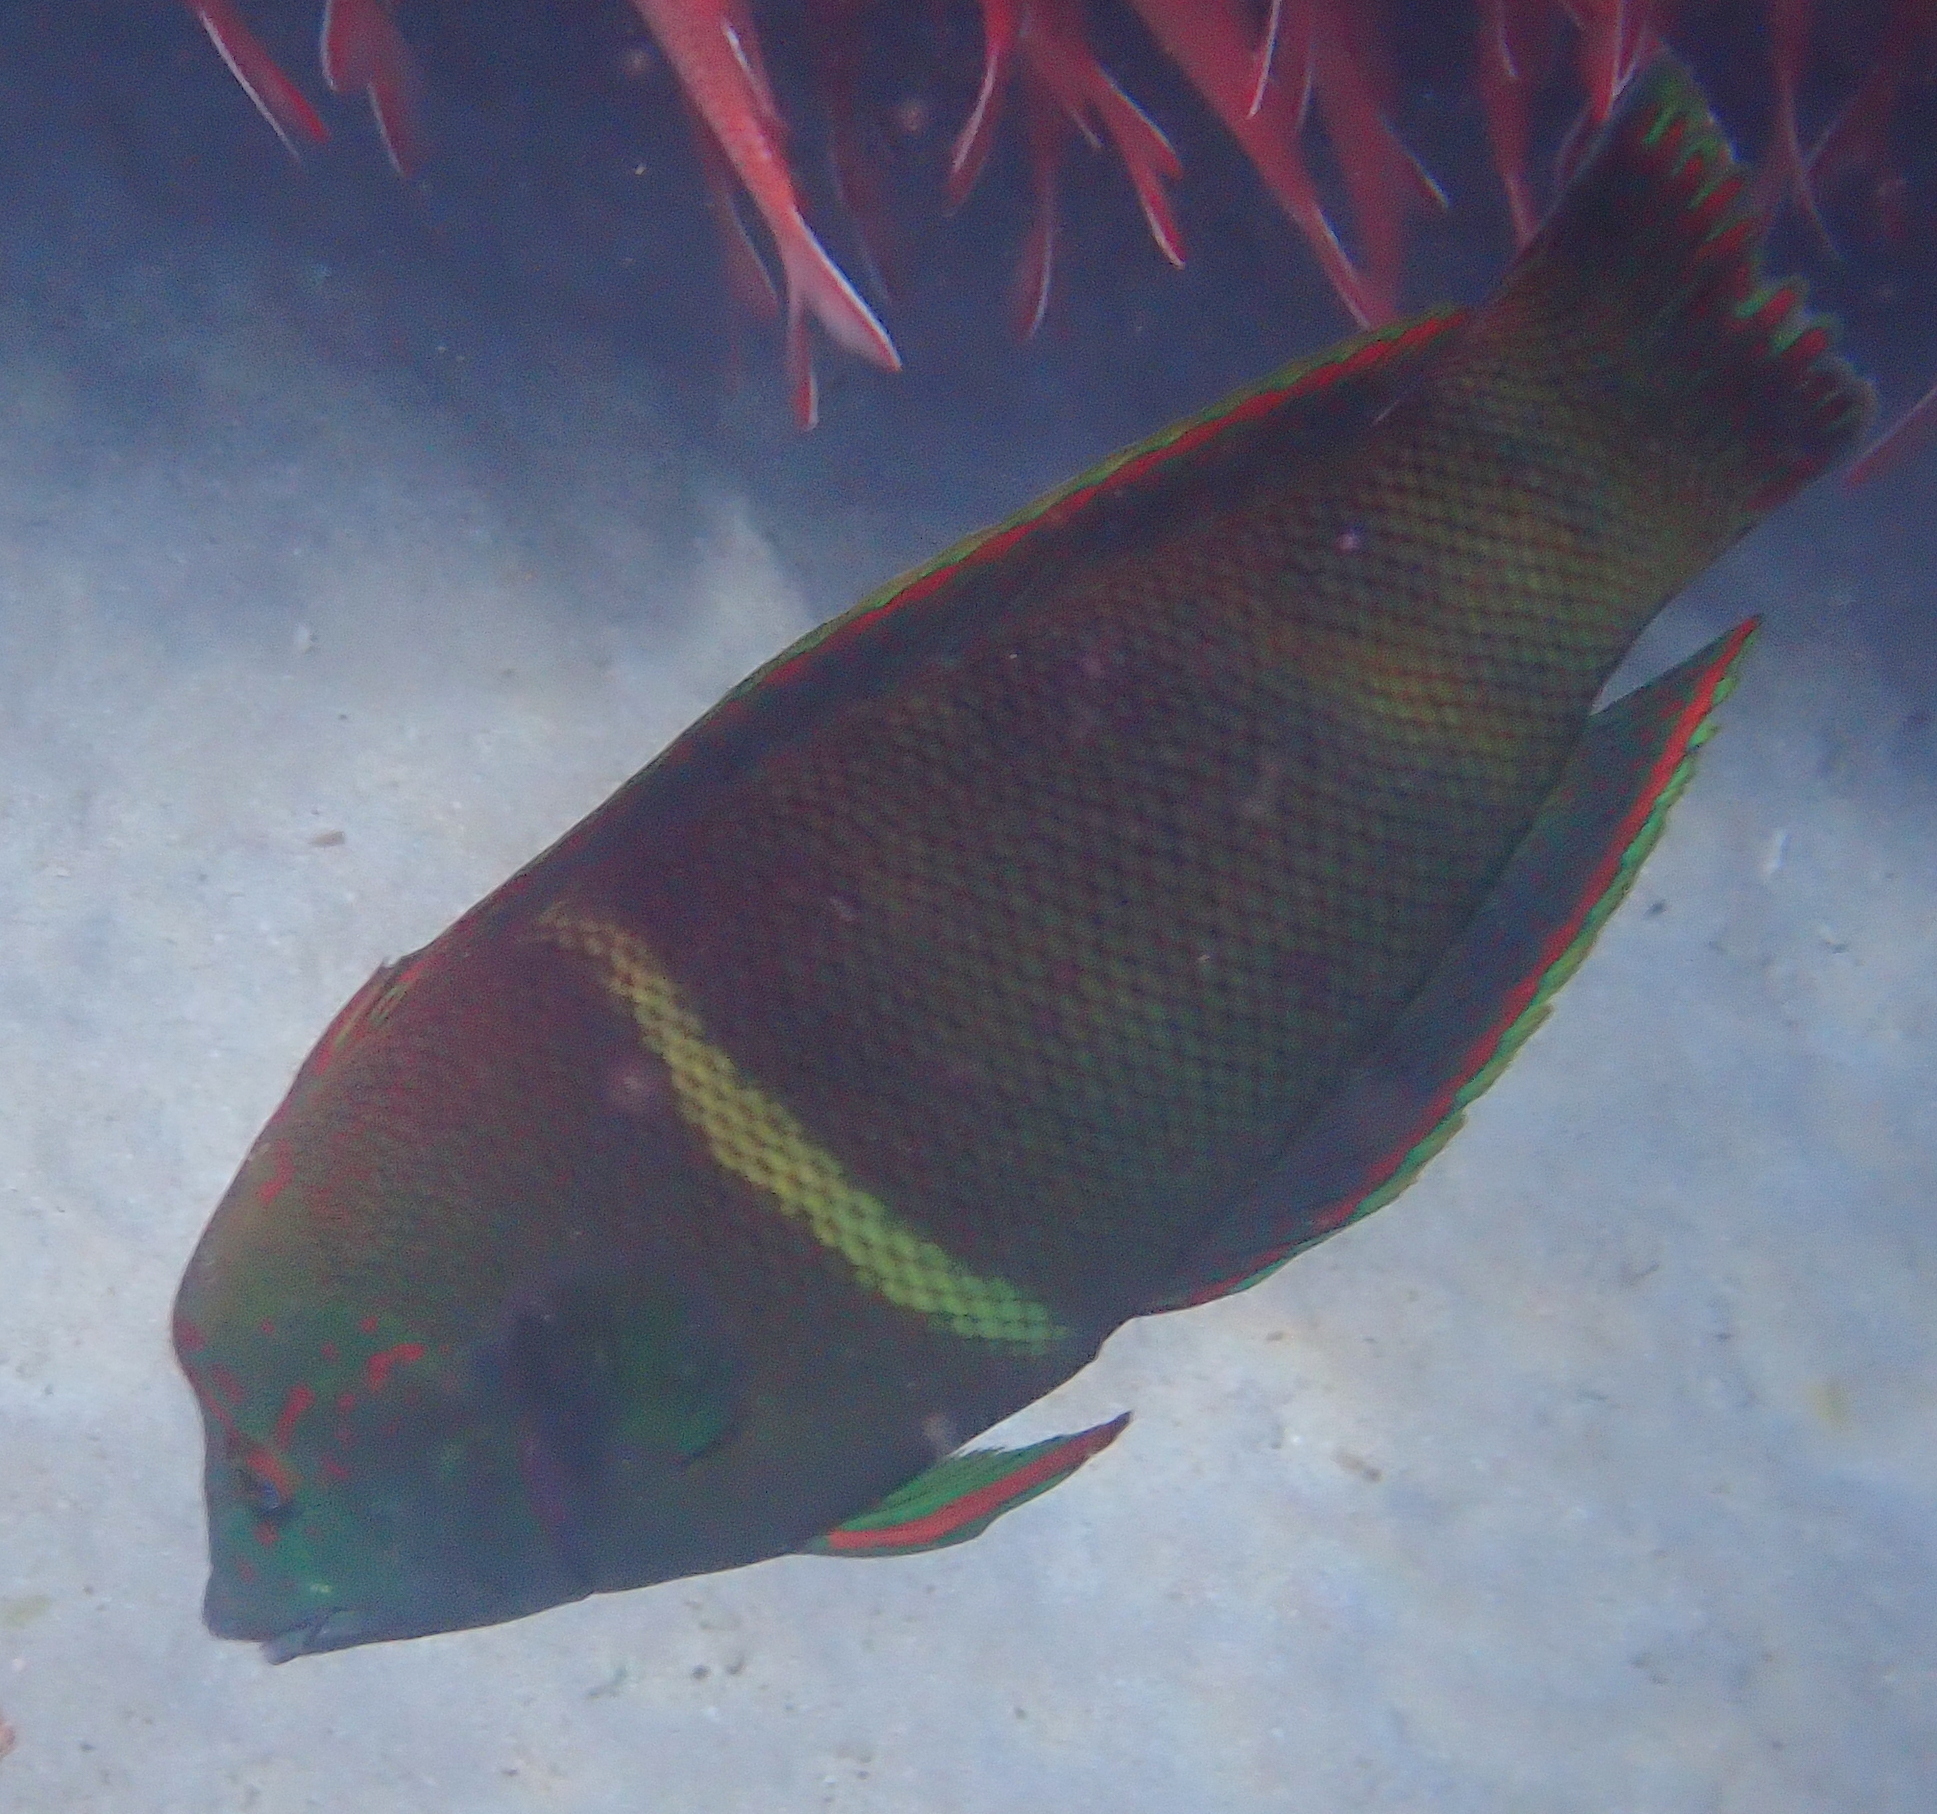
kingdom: Animalia
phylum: Chordata
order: Perciformes
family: Labridae
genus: Coris
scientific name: Coris aygula
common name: Clown coris
